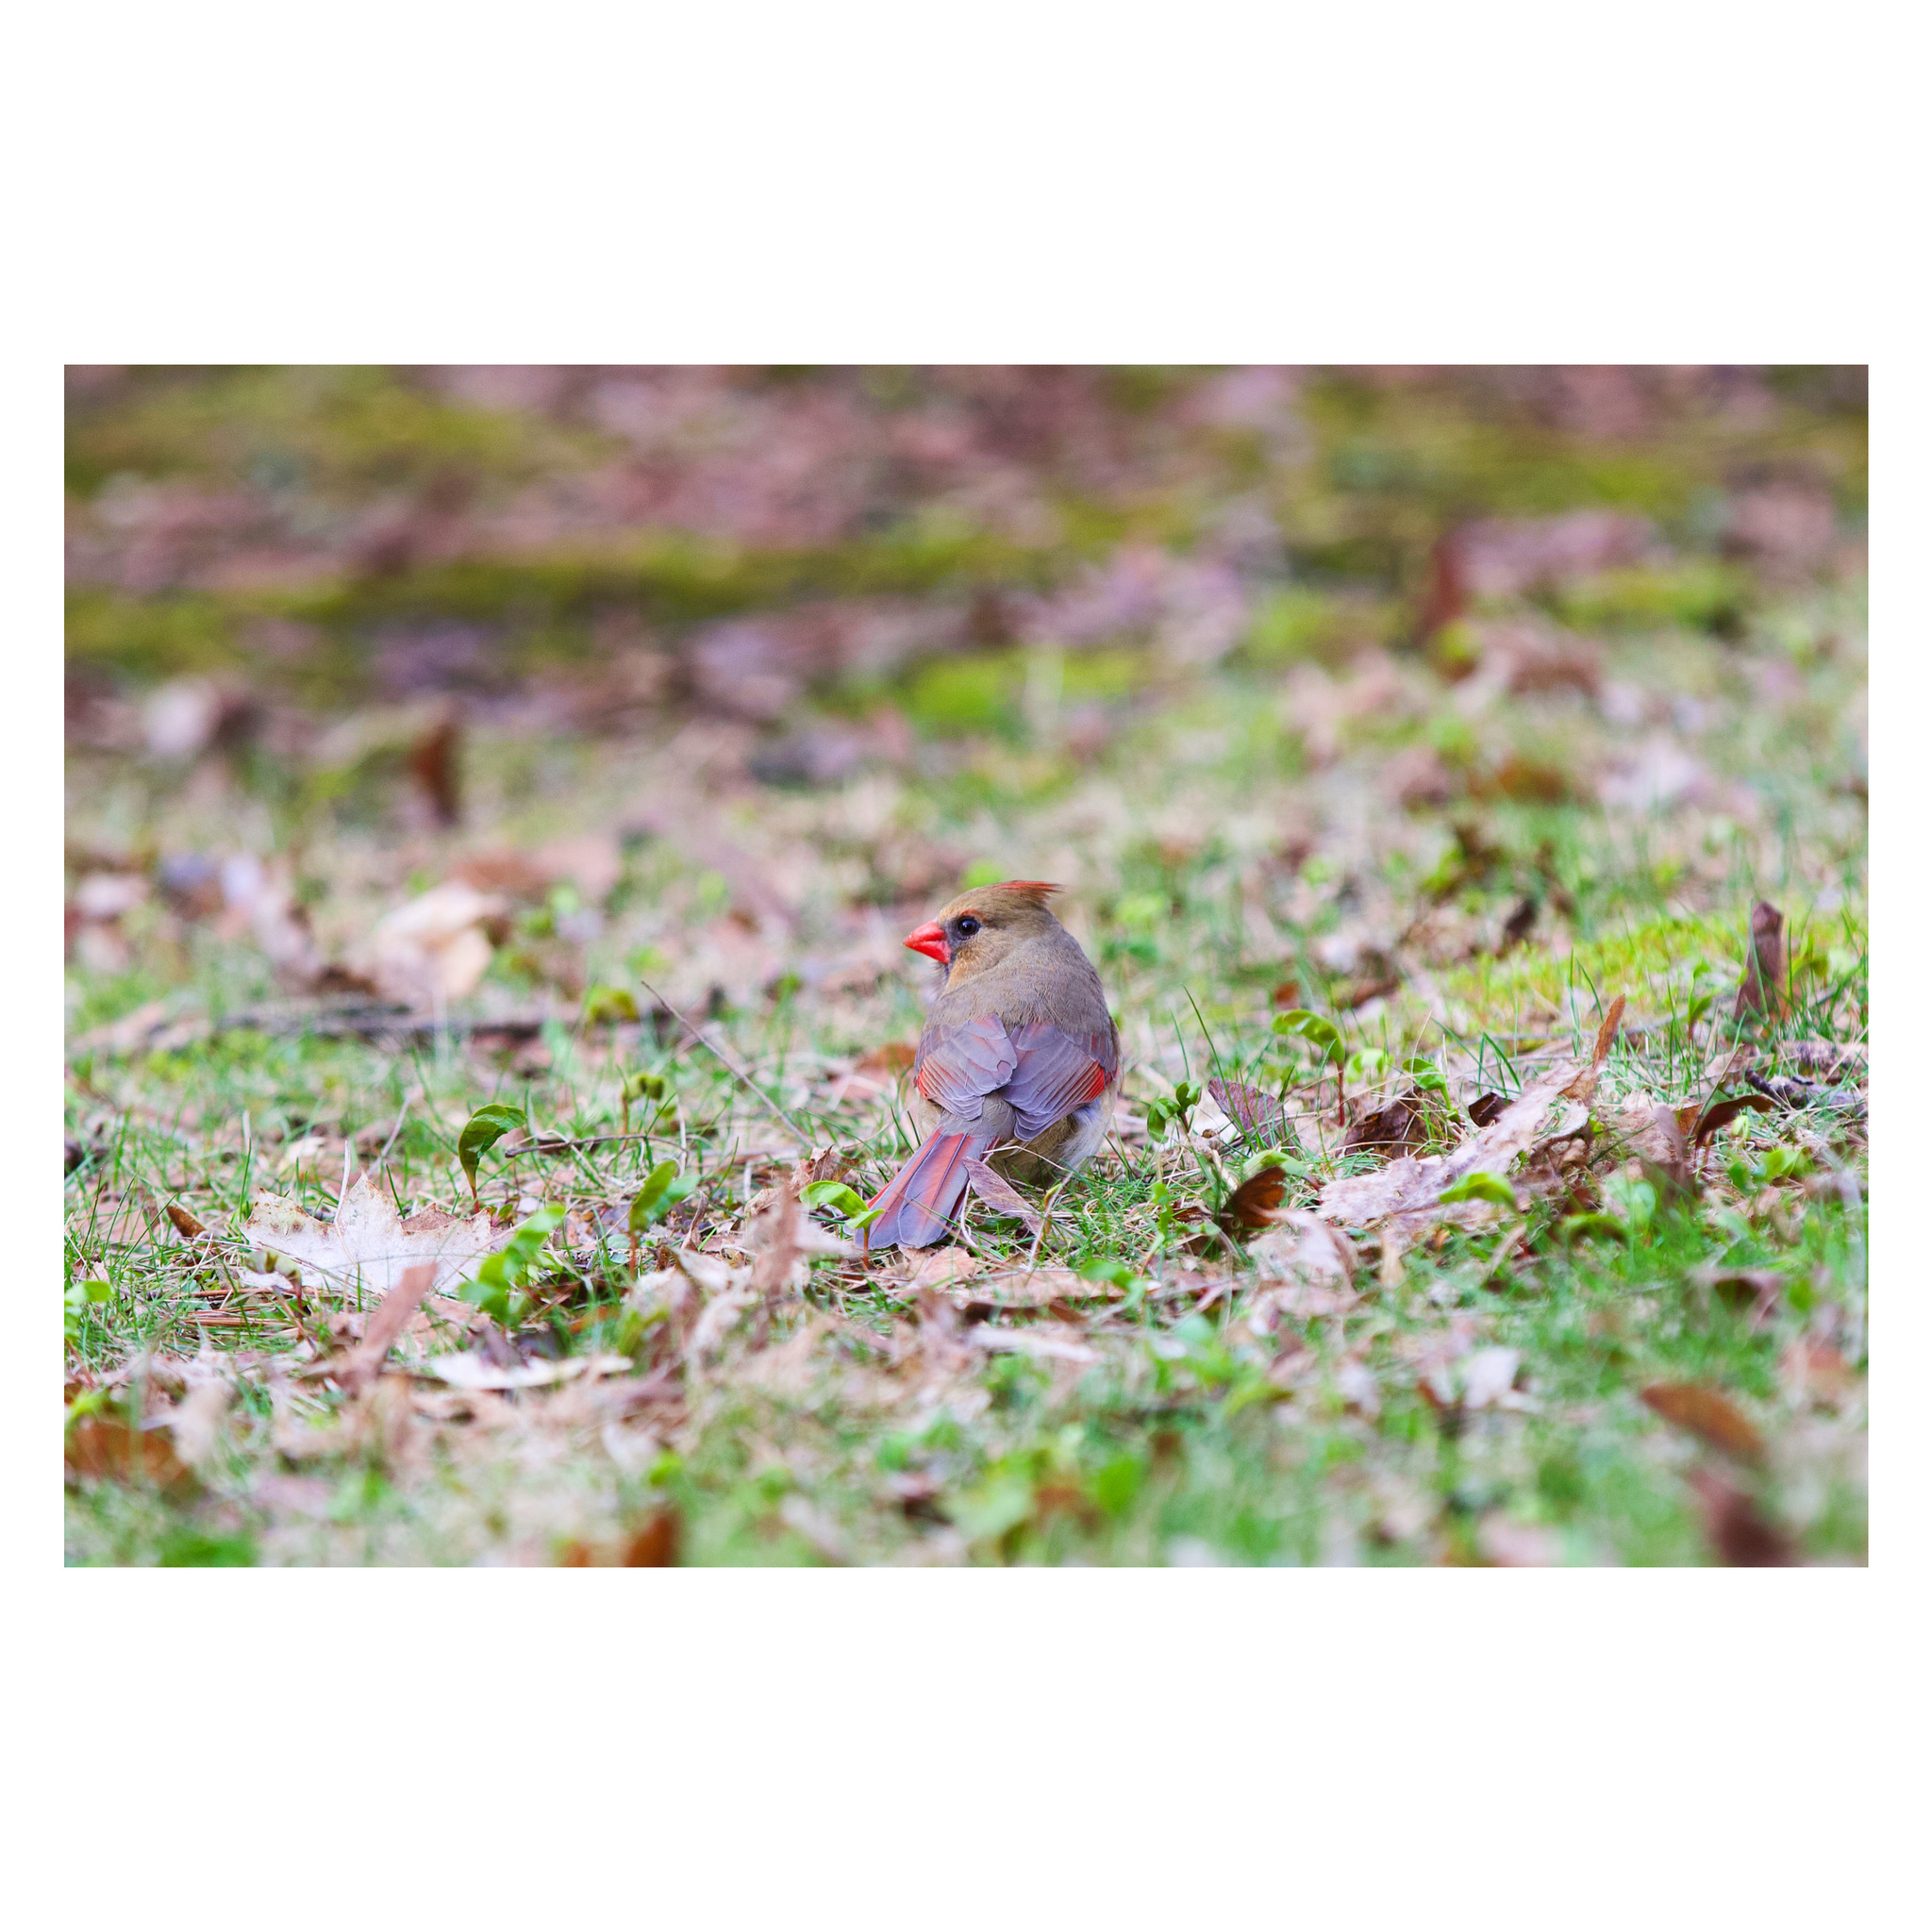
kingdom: Animalia
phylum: Chordata
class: Aves
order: Passeriformes
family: Cardinalidae
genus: Cardinalis
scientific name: Cardinalis cardinalis
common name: Northern cardinal
